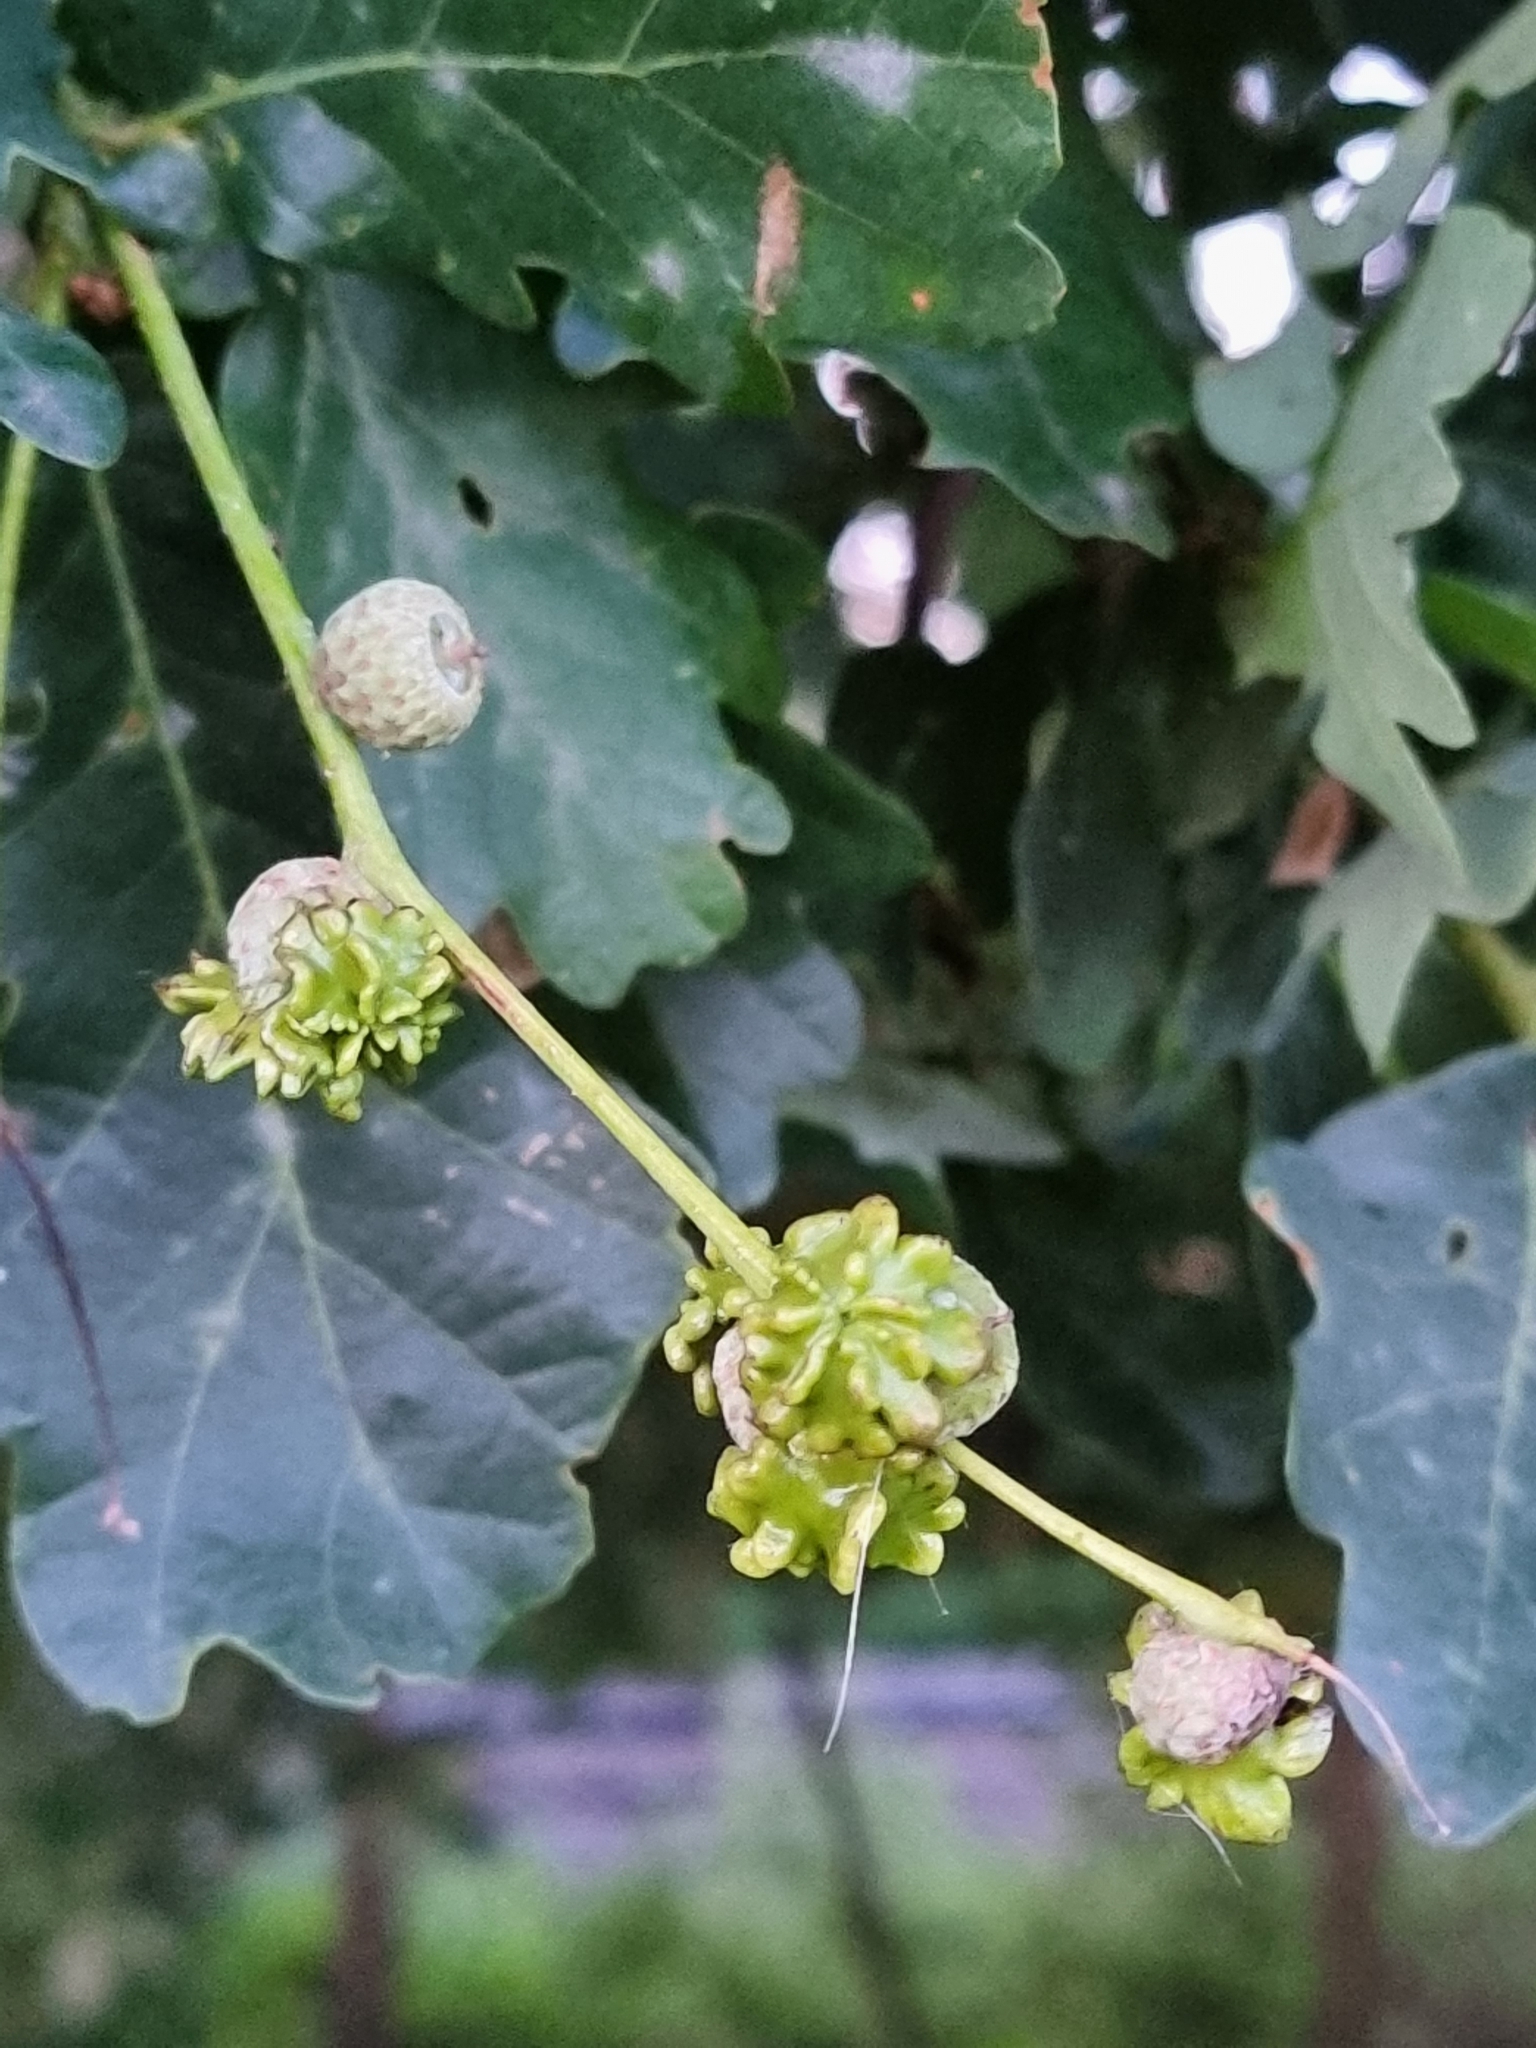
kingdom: Animalia
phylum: Arthropoda
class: Insecta
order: Hymenoptera
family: Cynipidae
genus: Andricus
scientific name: Andricus quercuscalicis
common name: Knopper gall
